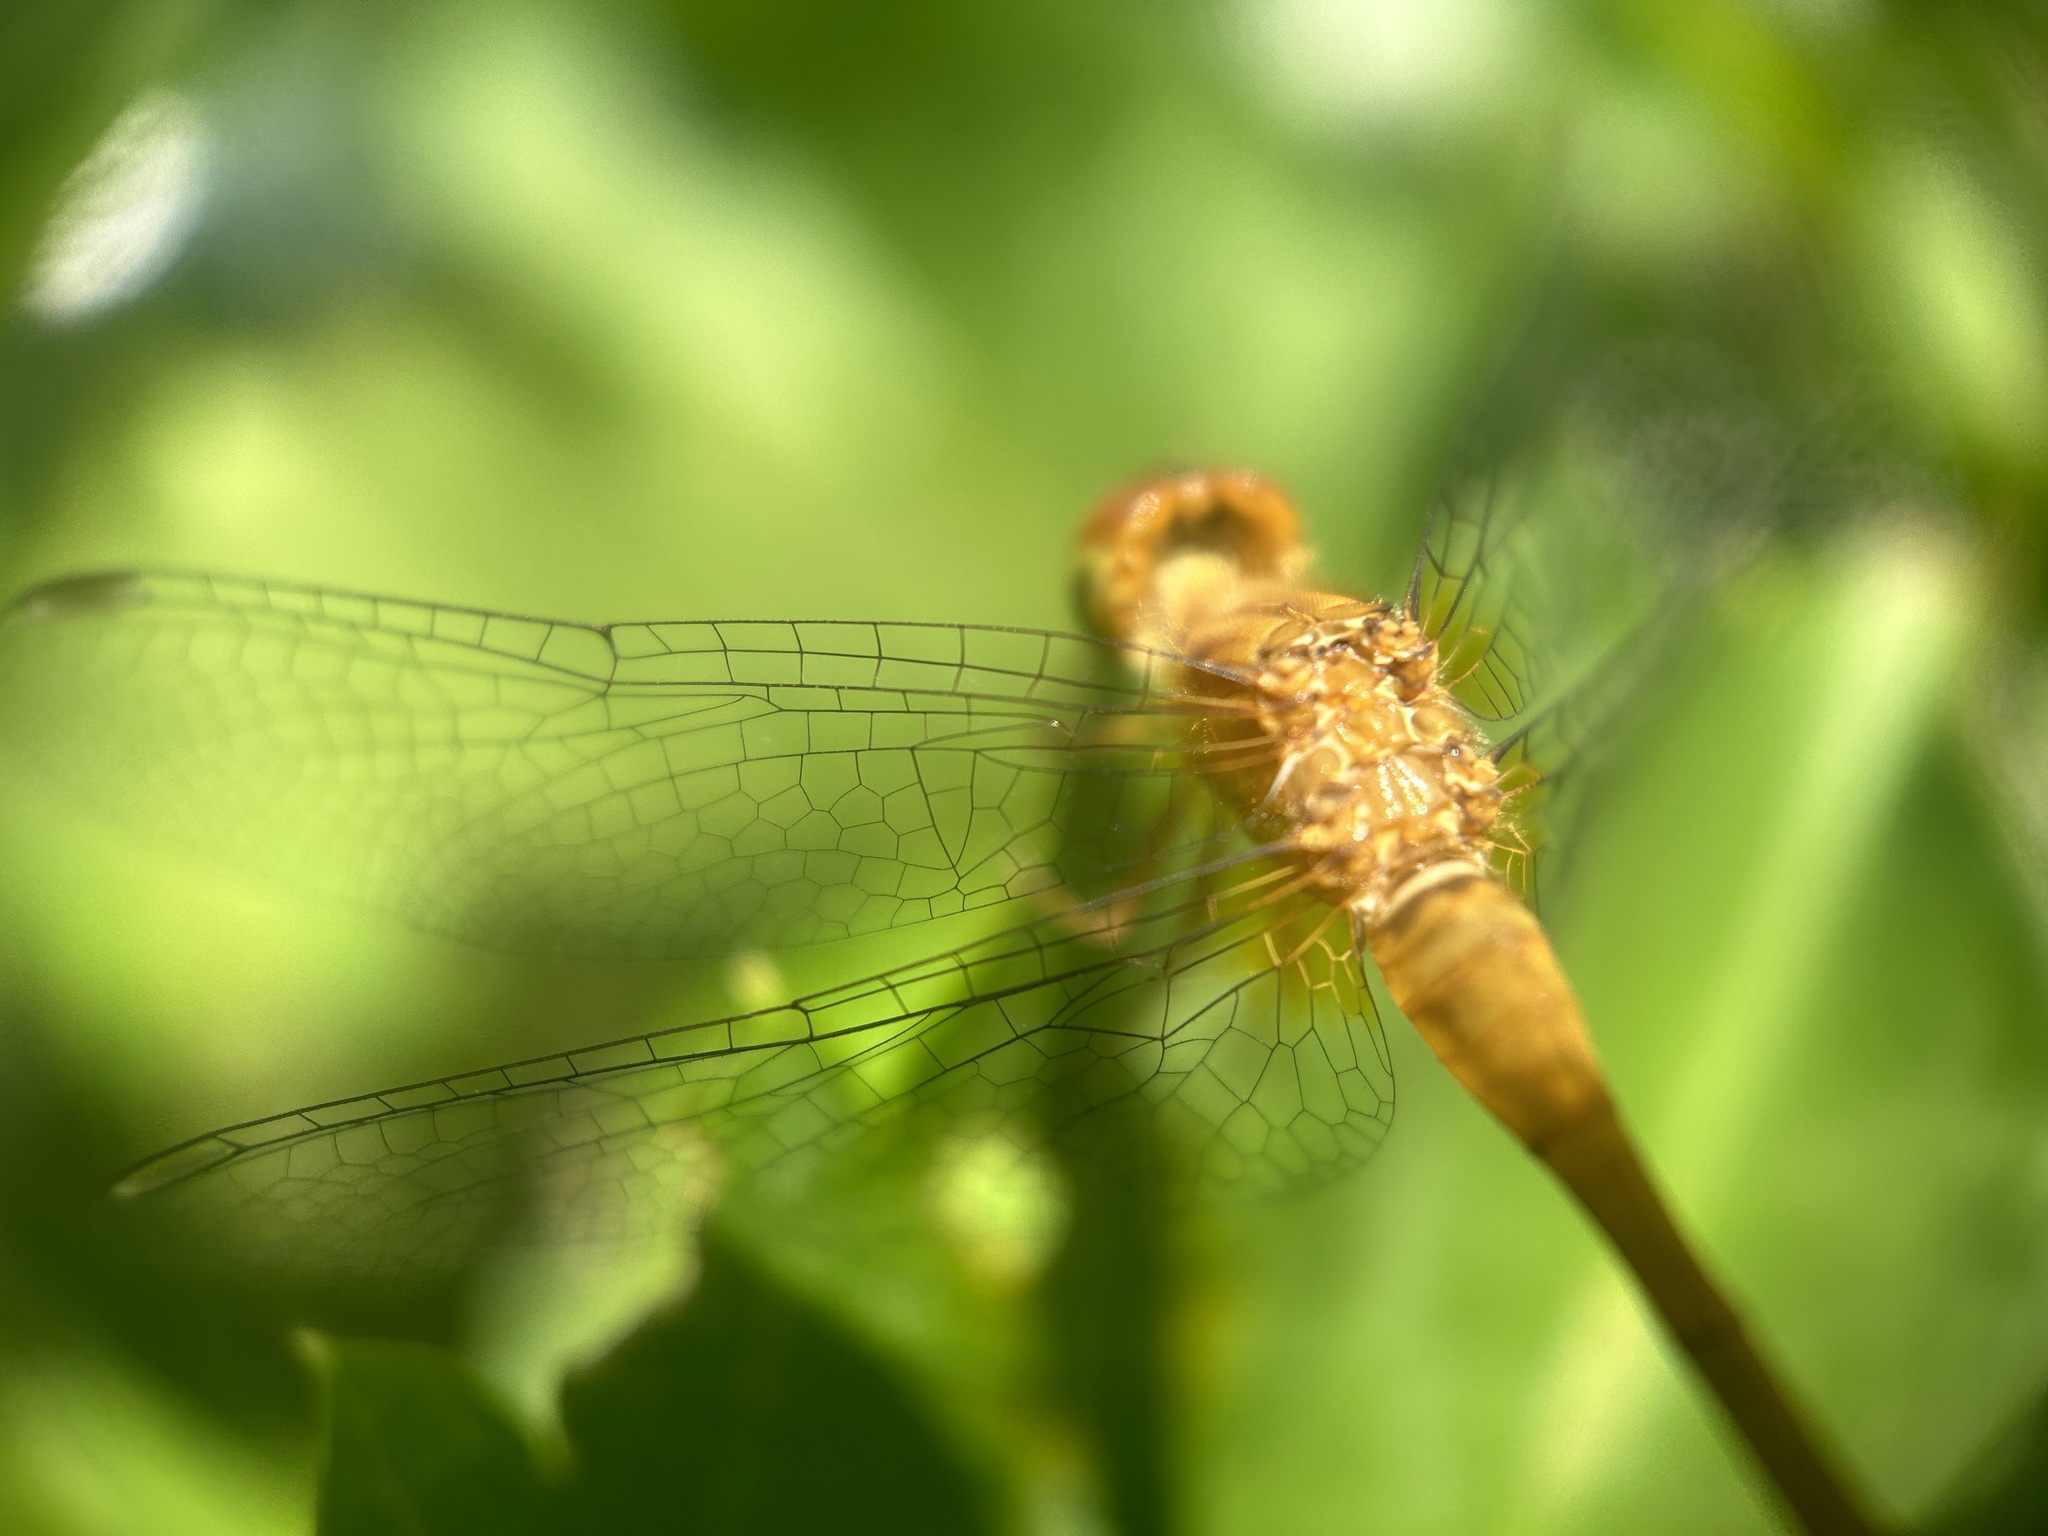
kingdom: Animalia
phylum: Arthropoda
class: Insecta
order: Odonata
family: Libellulidae
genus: Sympetrum
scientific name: Sympetrum vicinum
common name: Autumn meadowhawk
